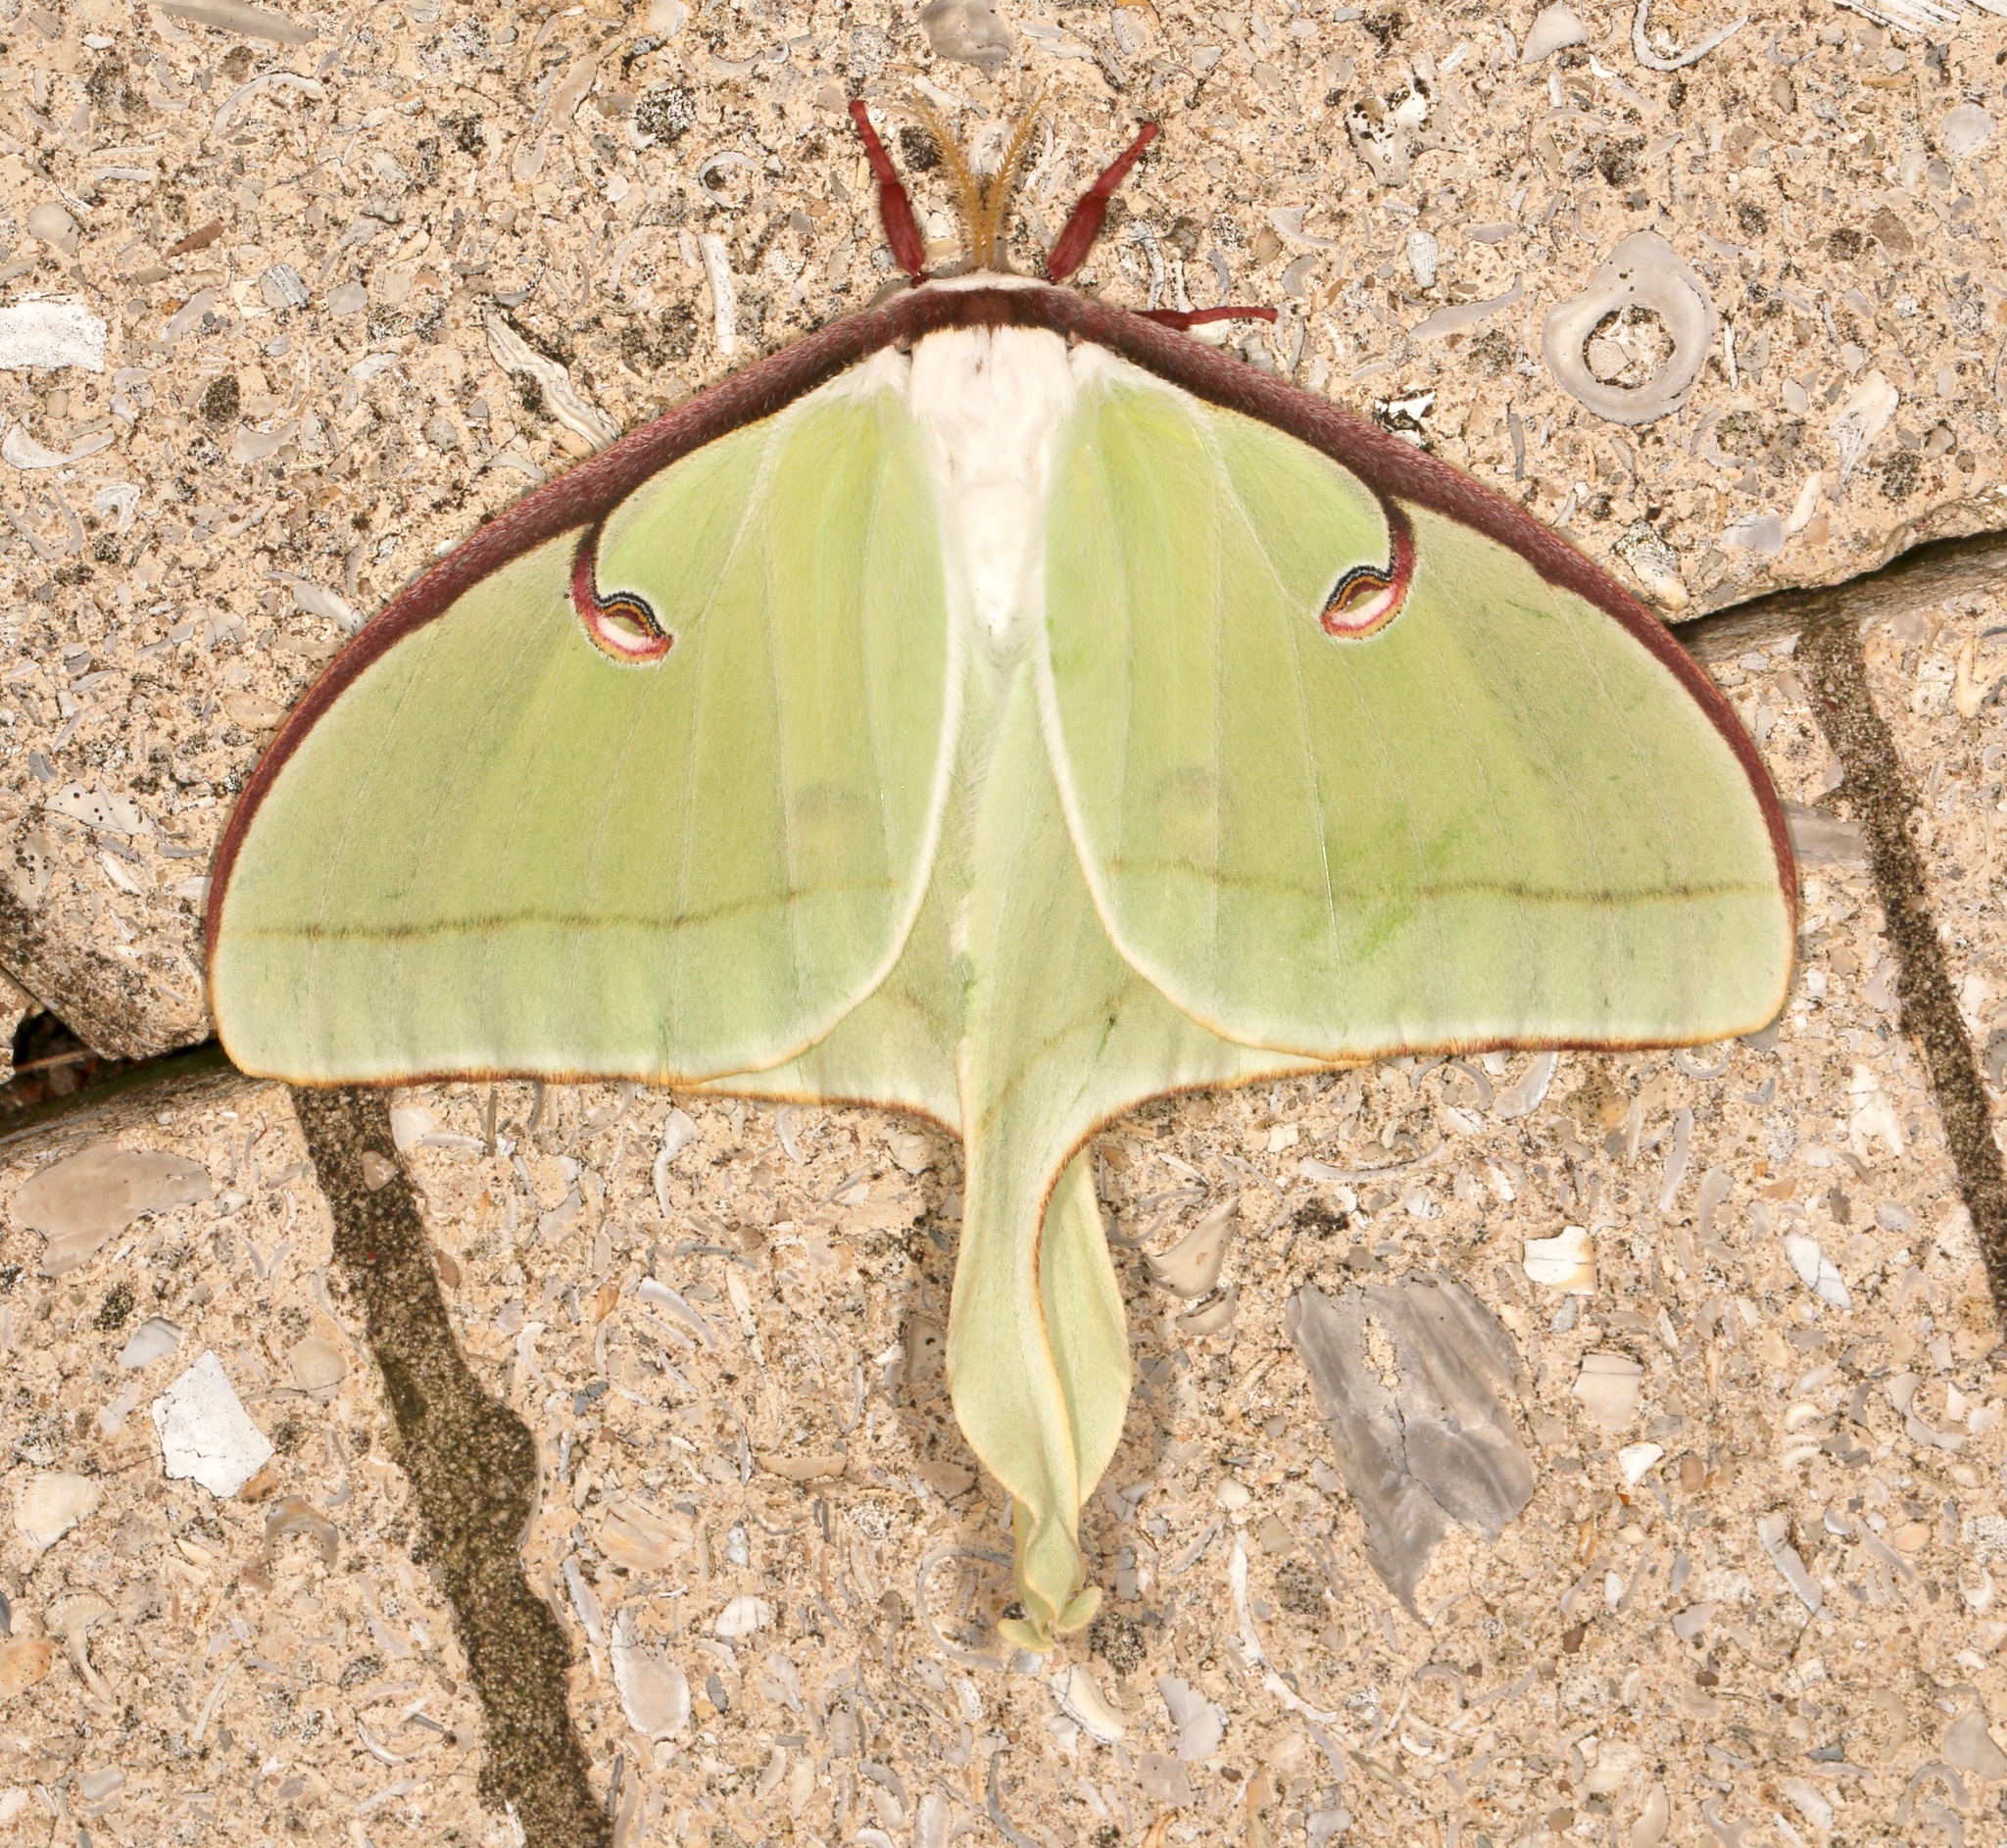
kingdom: Animalia
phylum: Arthropoda
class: Insecta
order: Lepidoptera
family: Saturniidae
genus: Actias
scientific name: Actias luna
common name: Luna moth
